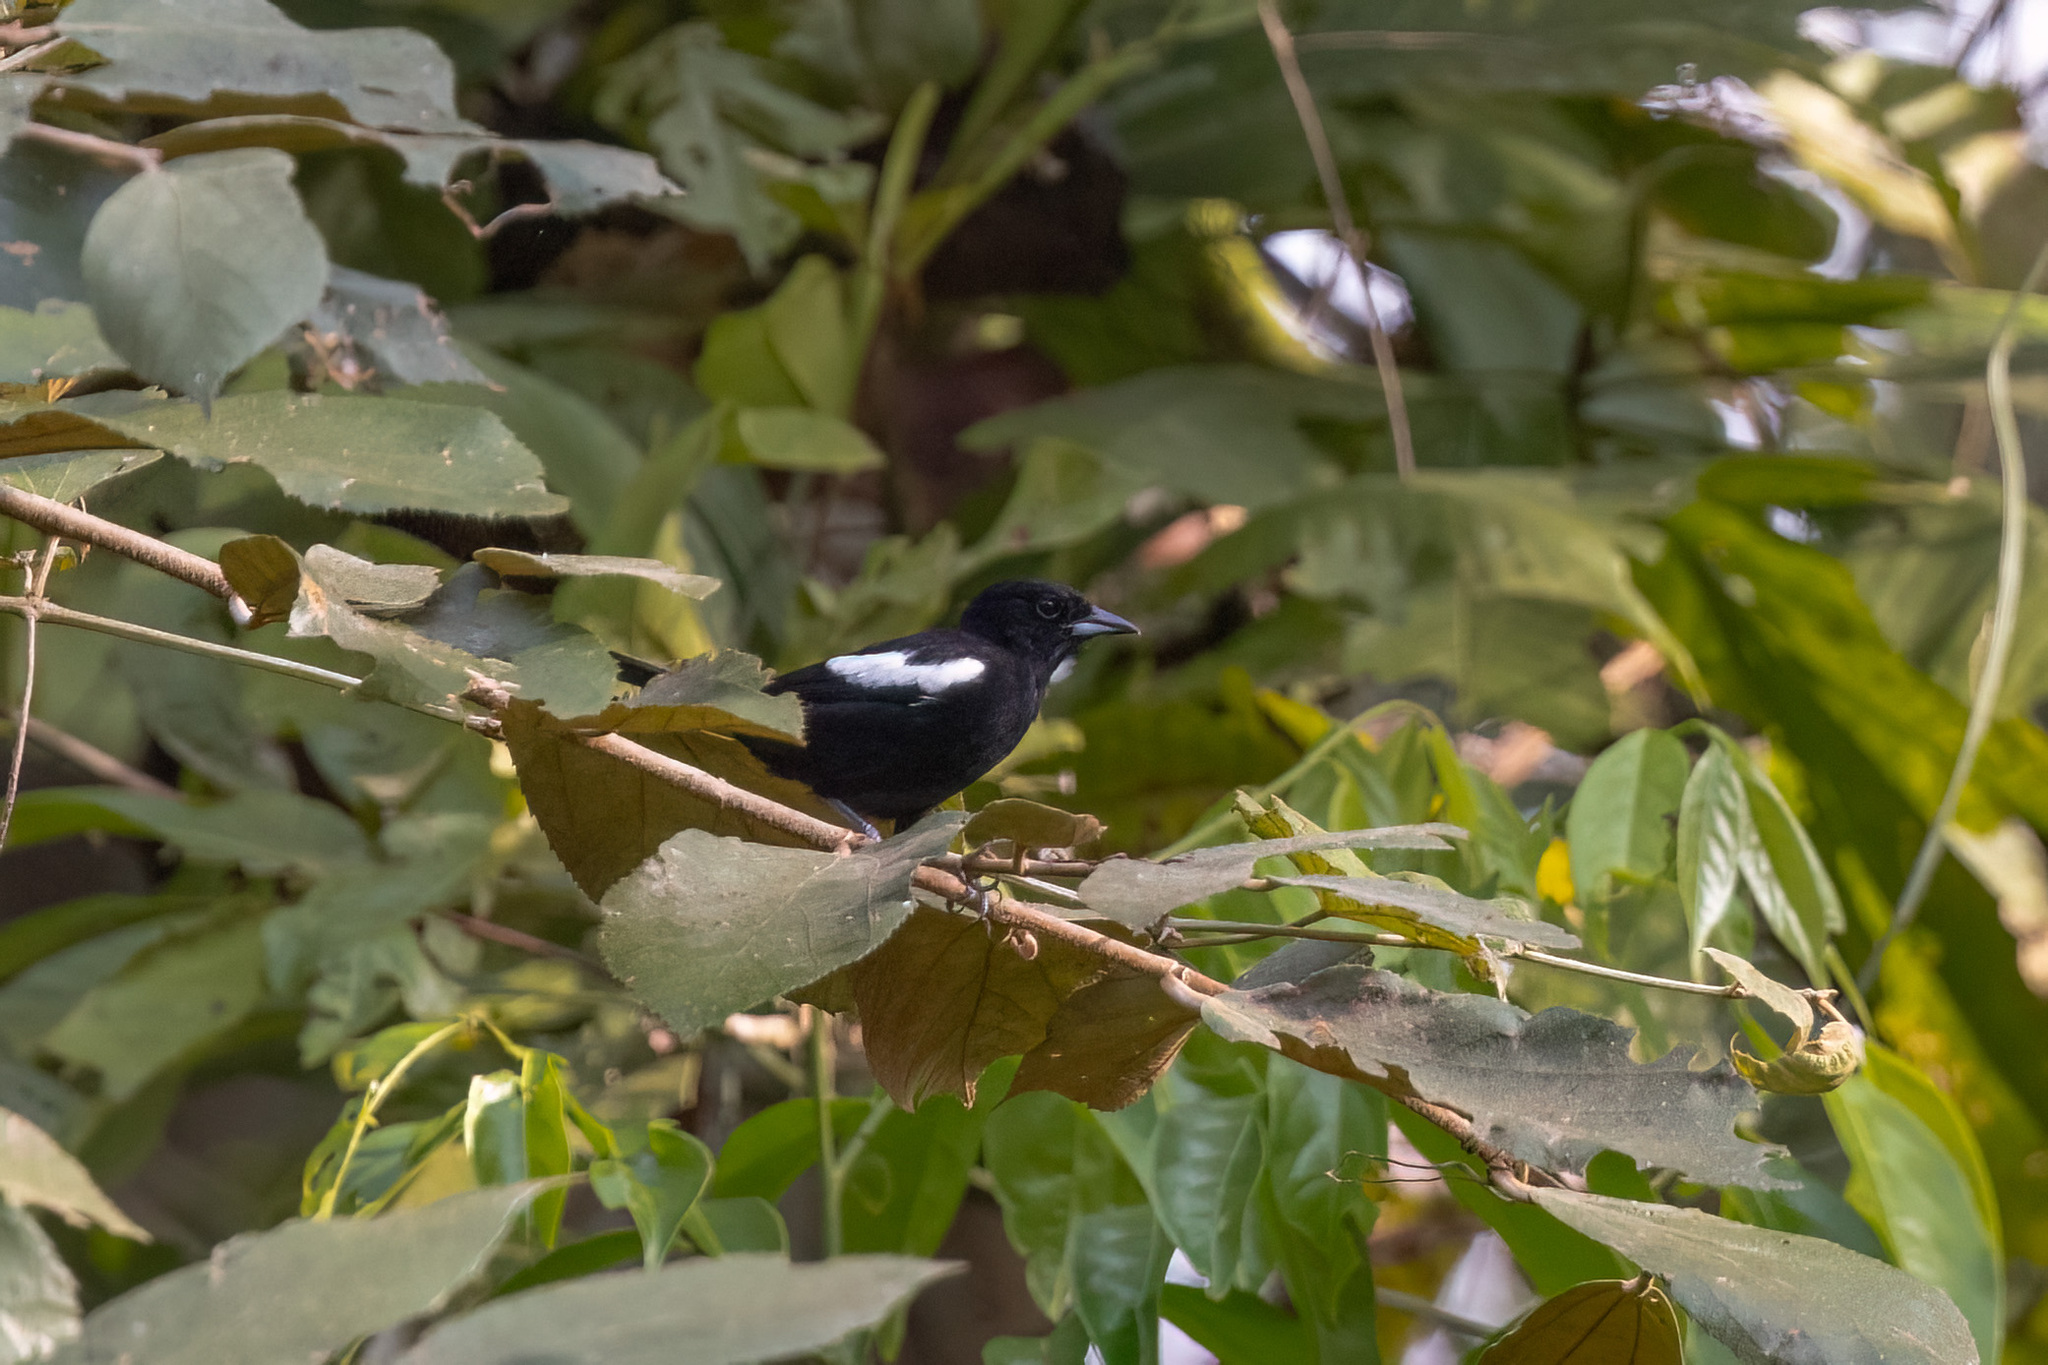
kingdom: Animalia
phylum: Chordata
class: Aves
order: Passeriformes
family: Thraupidae
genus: Loriotus
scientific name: Loriotus luctuosus
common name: White-shouldered tanager
